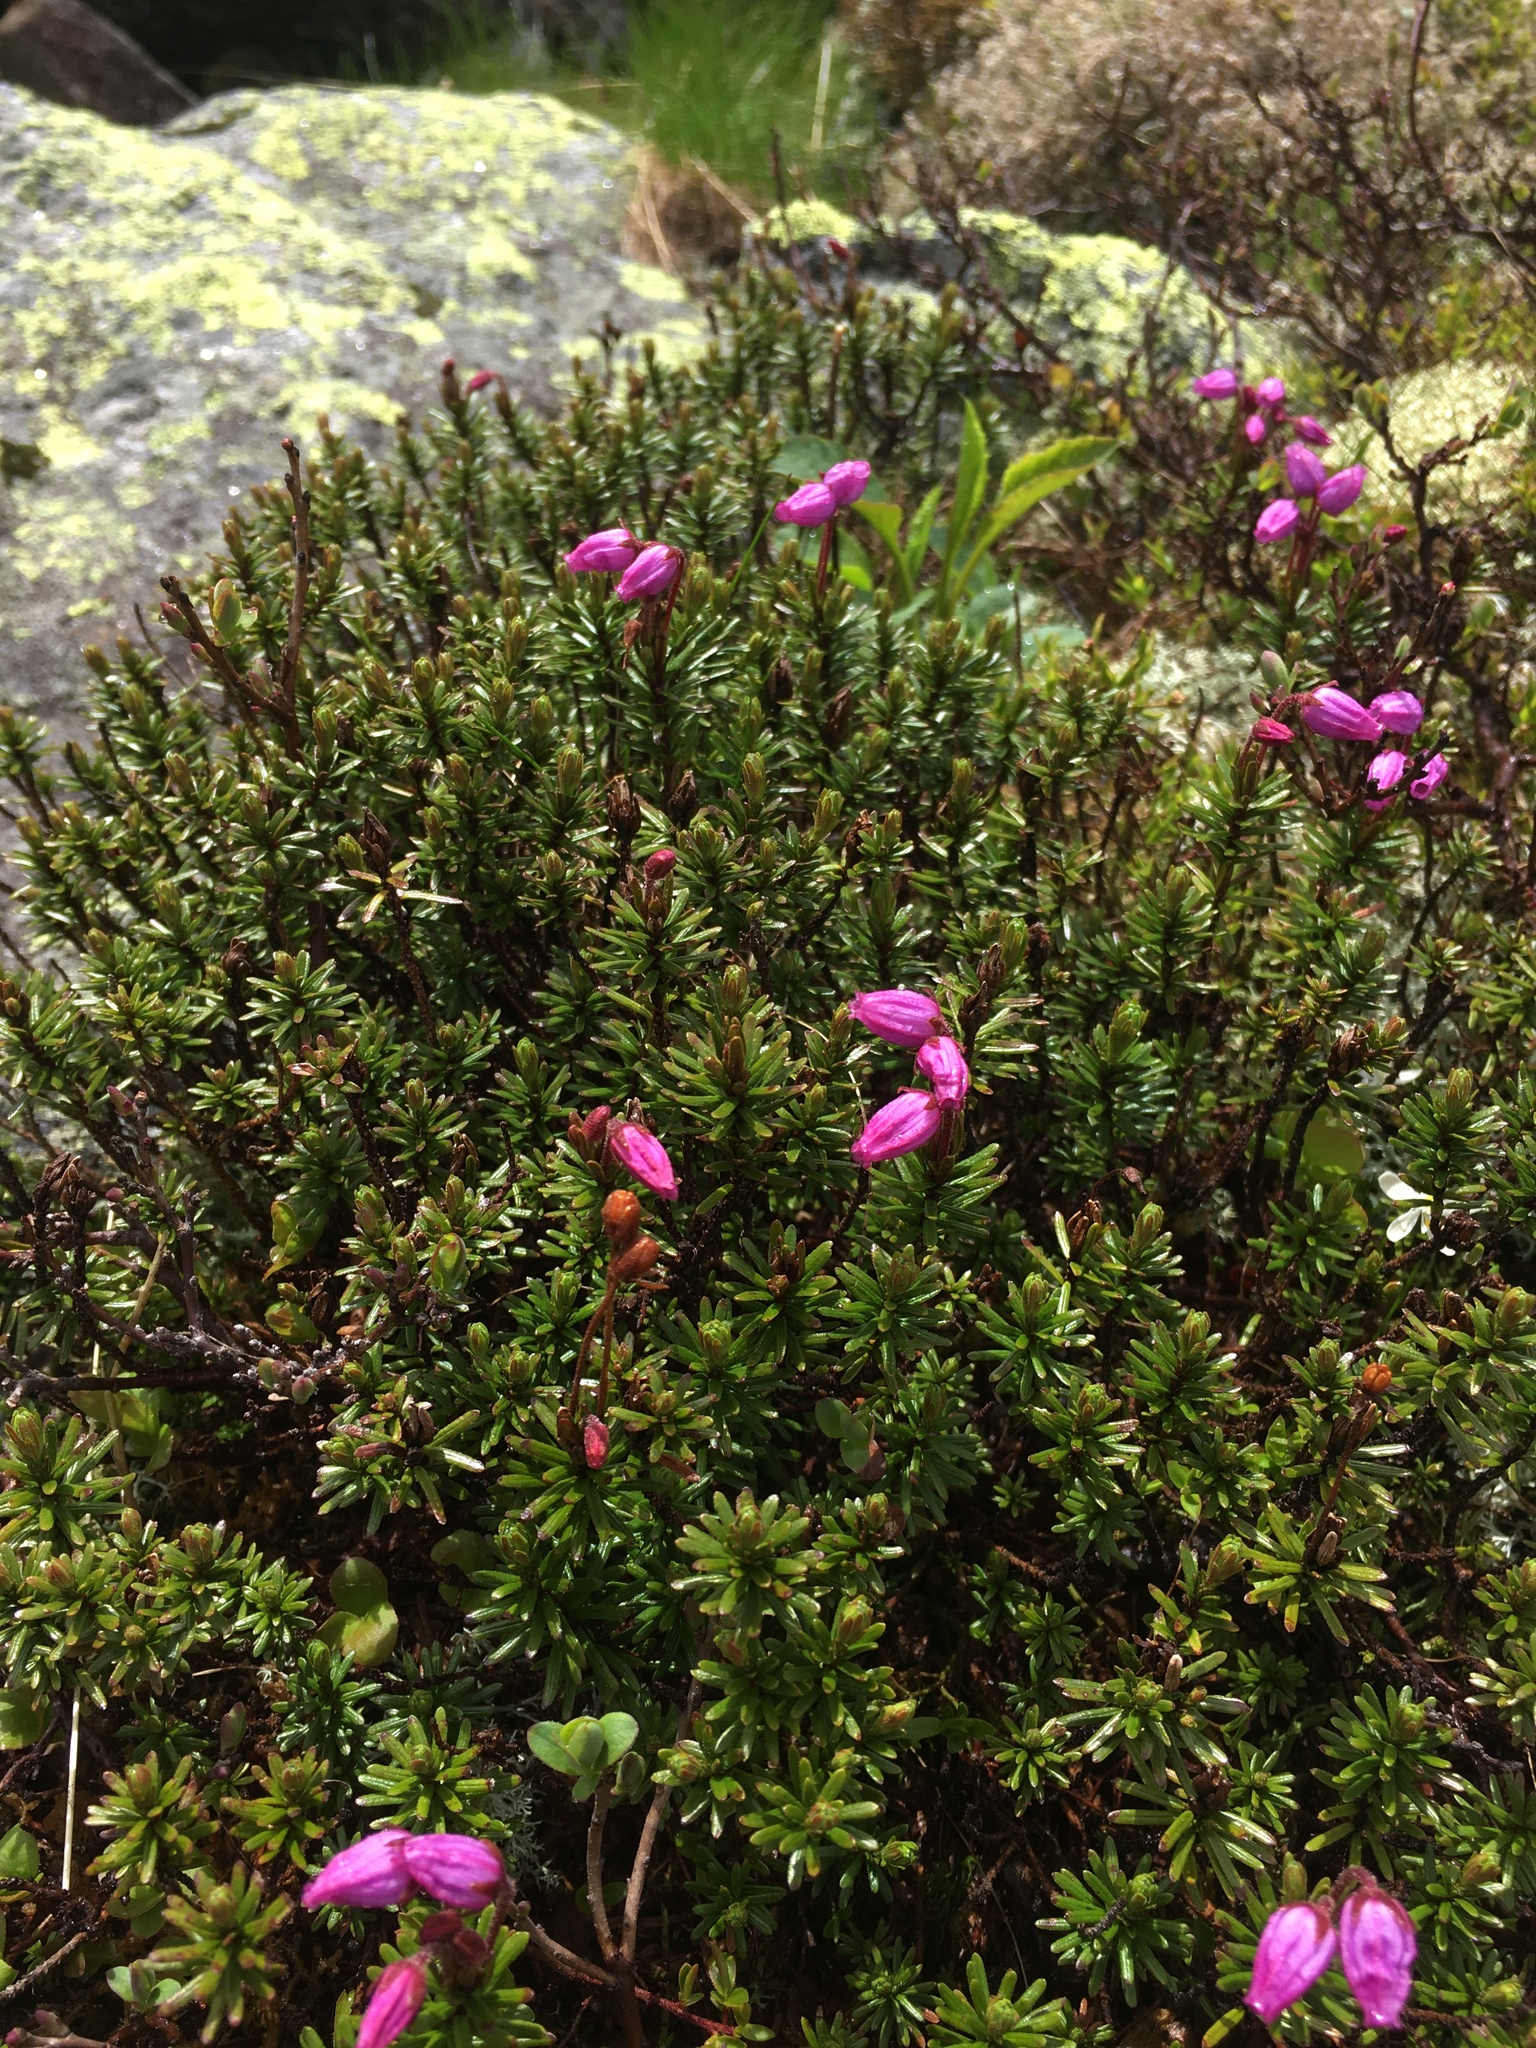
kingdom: Plantae
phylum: Tracheophyta
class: Magnoliopsida
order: Ericales
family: Ericaceae
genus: Phyllodoce
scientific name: Phyllodoce caerulea
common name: Blue heath
